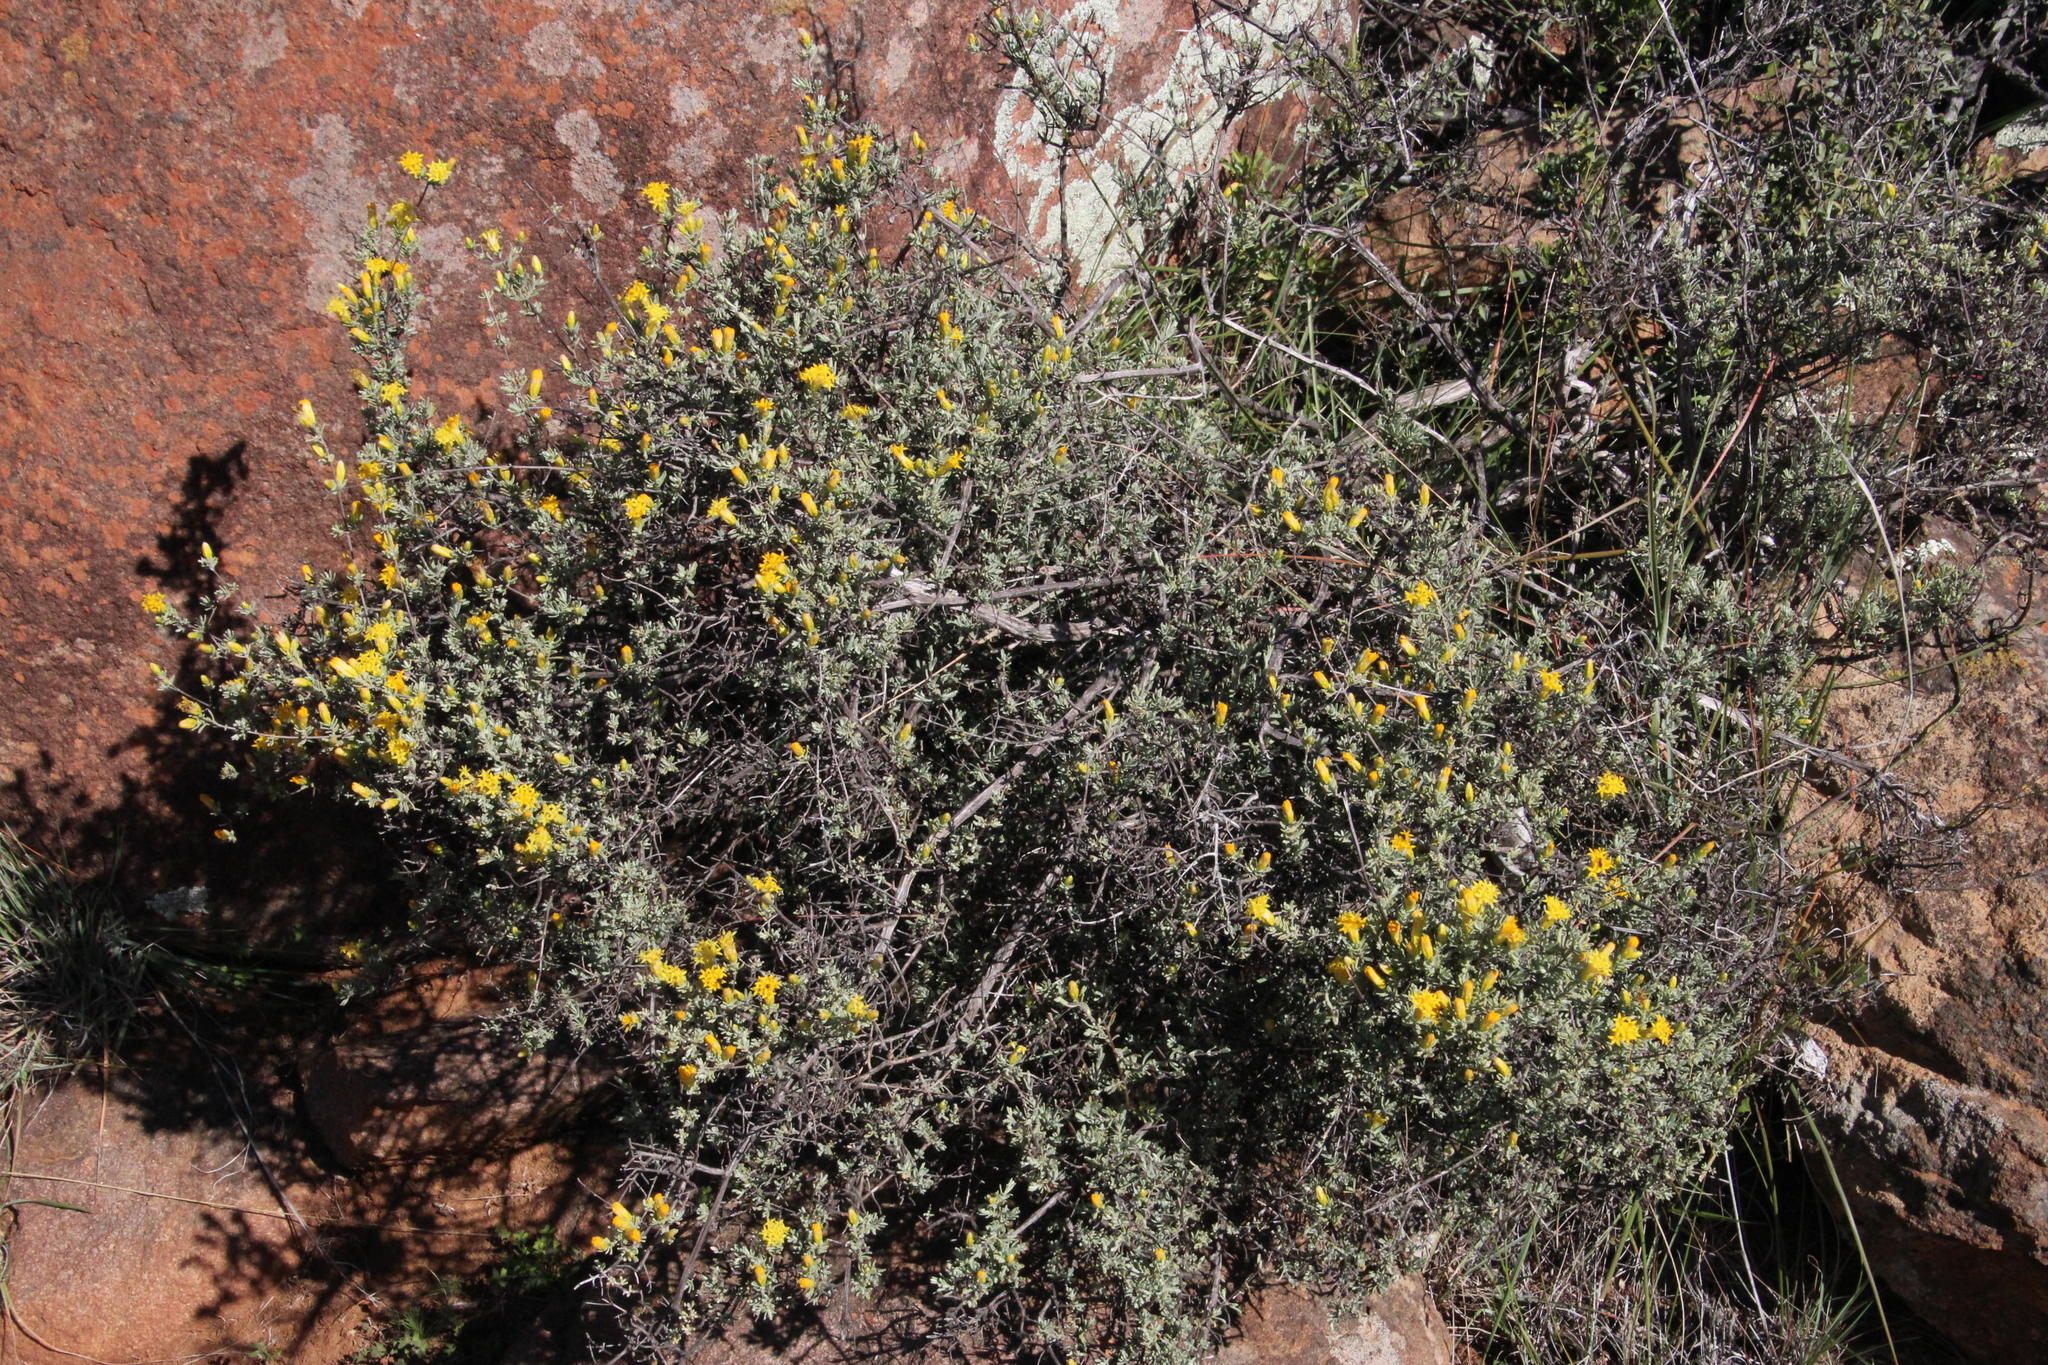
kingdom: Plantae
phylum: Tracheophyta
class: Magnoliopsida
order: Asterales
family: Asteraceae
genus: Pteronia
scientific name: Pteronia incana
